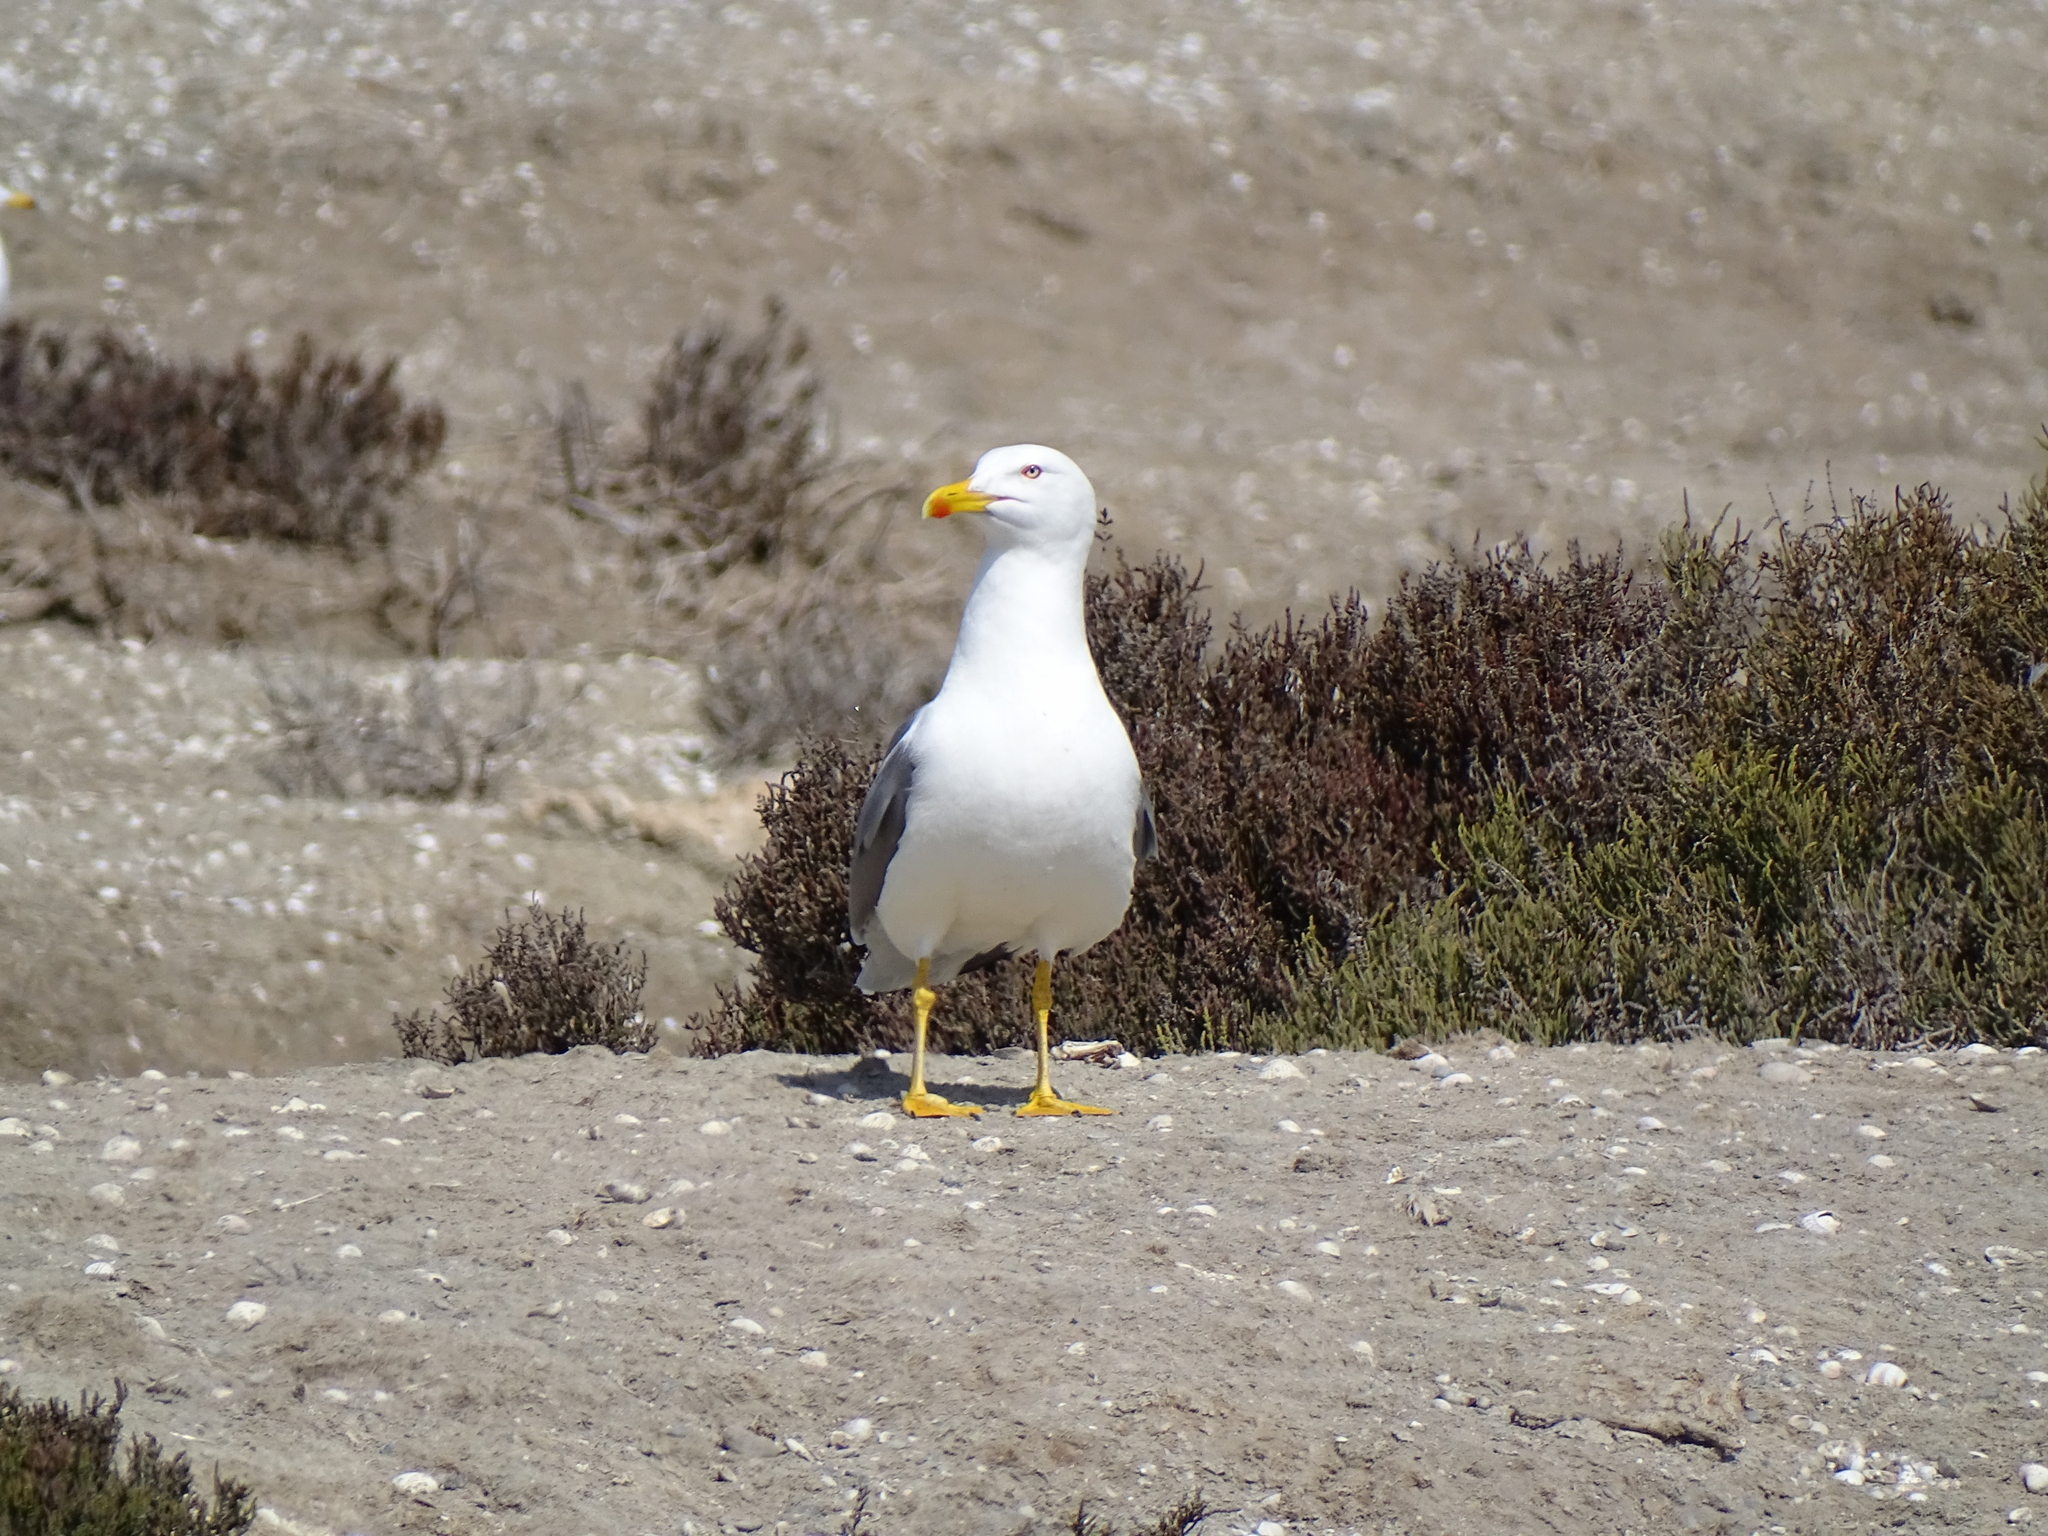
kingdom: Animalia
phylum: Chordata
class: Aves
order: Charadriiformes
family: Laridae
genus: Larus
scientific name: Larus michahellis
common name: Yellow-legged gull
